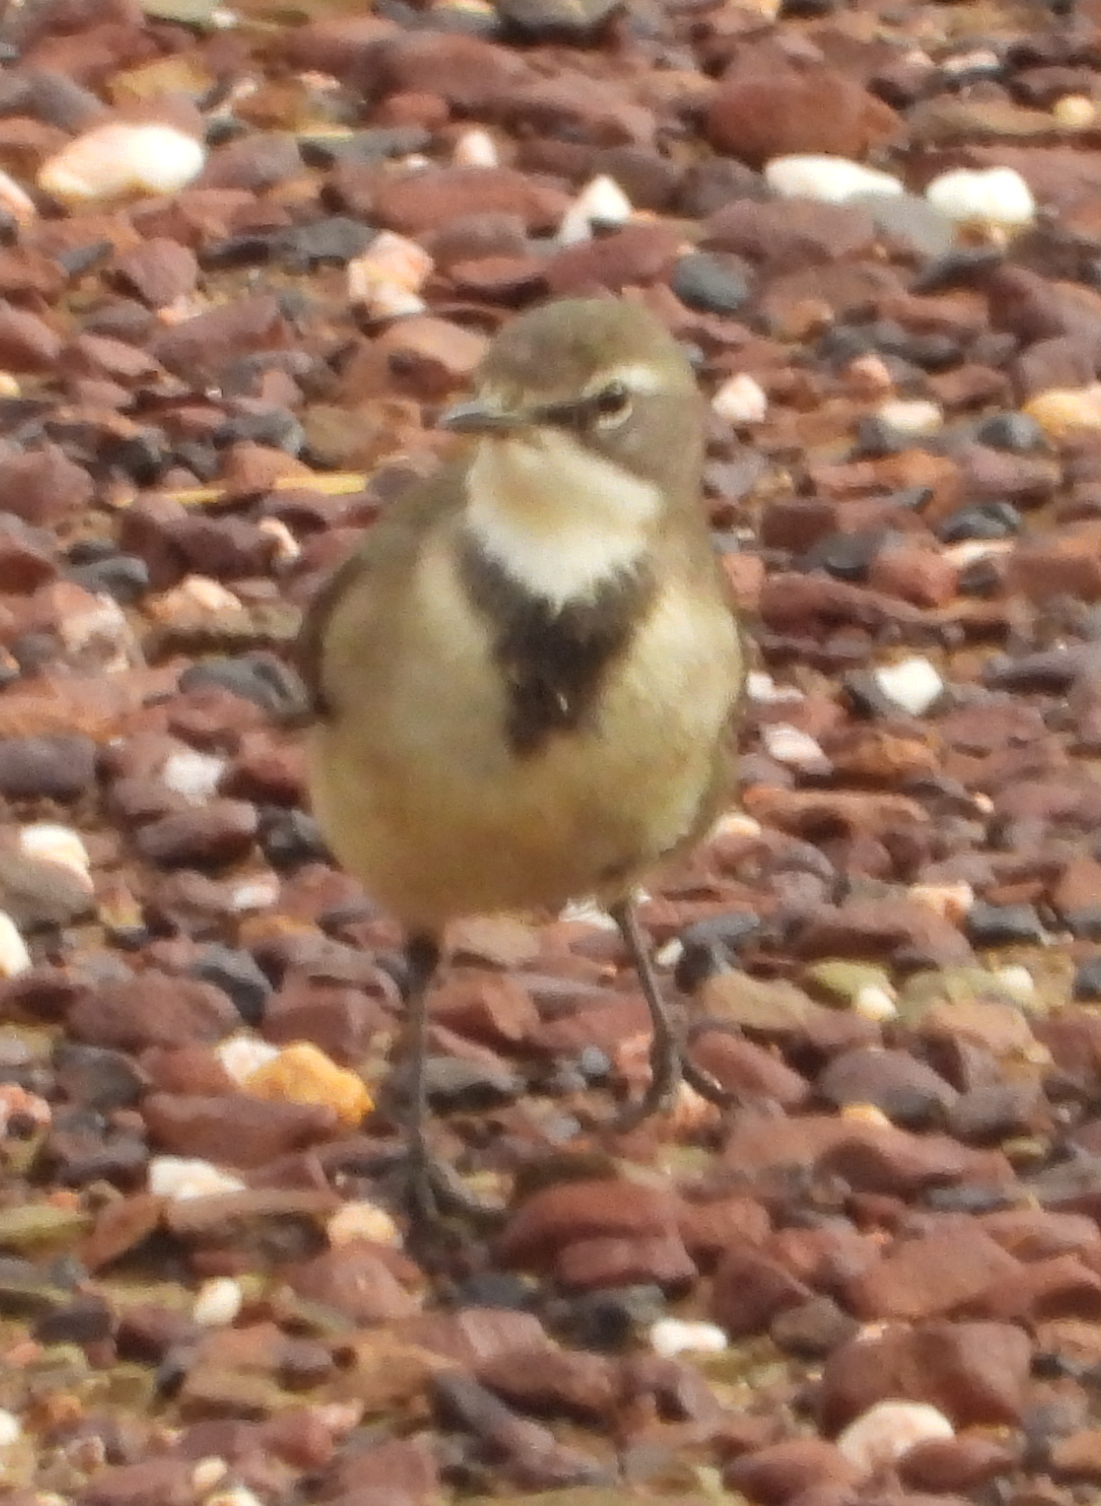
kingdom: Animalia
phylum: Chordata
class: Aves
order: Passeriformes
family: Motacillidae
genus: Motacilla
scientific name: Motacilla capensis
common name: Cape wagtail
